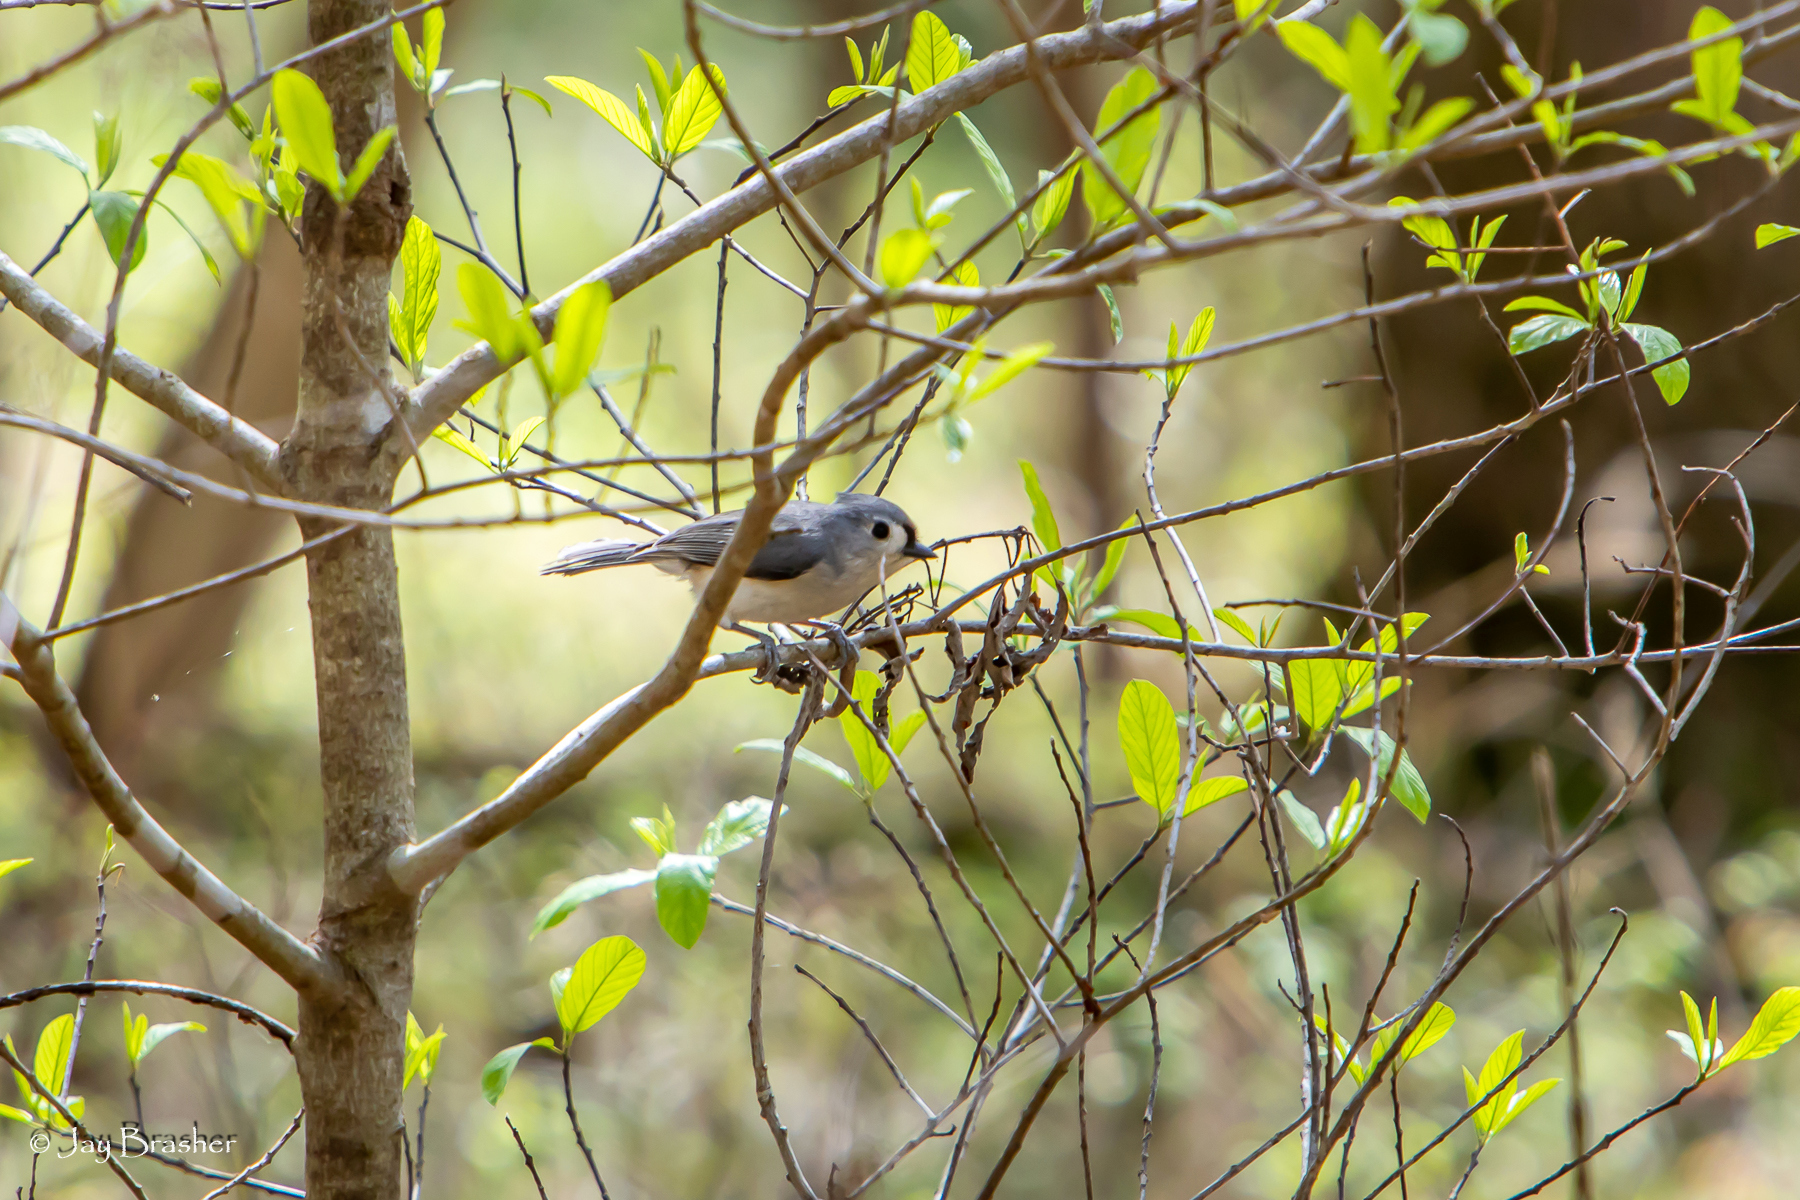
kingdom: Animalia
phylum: Chordata
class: Aves
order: Passeriformes
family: Paridae
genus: Baeolophus
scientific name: Baeolophus bicolor
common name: Tufted titmouse
